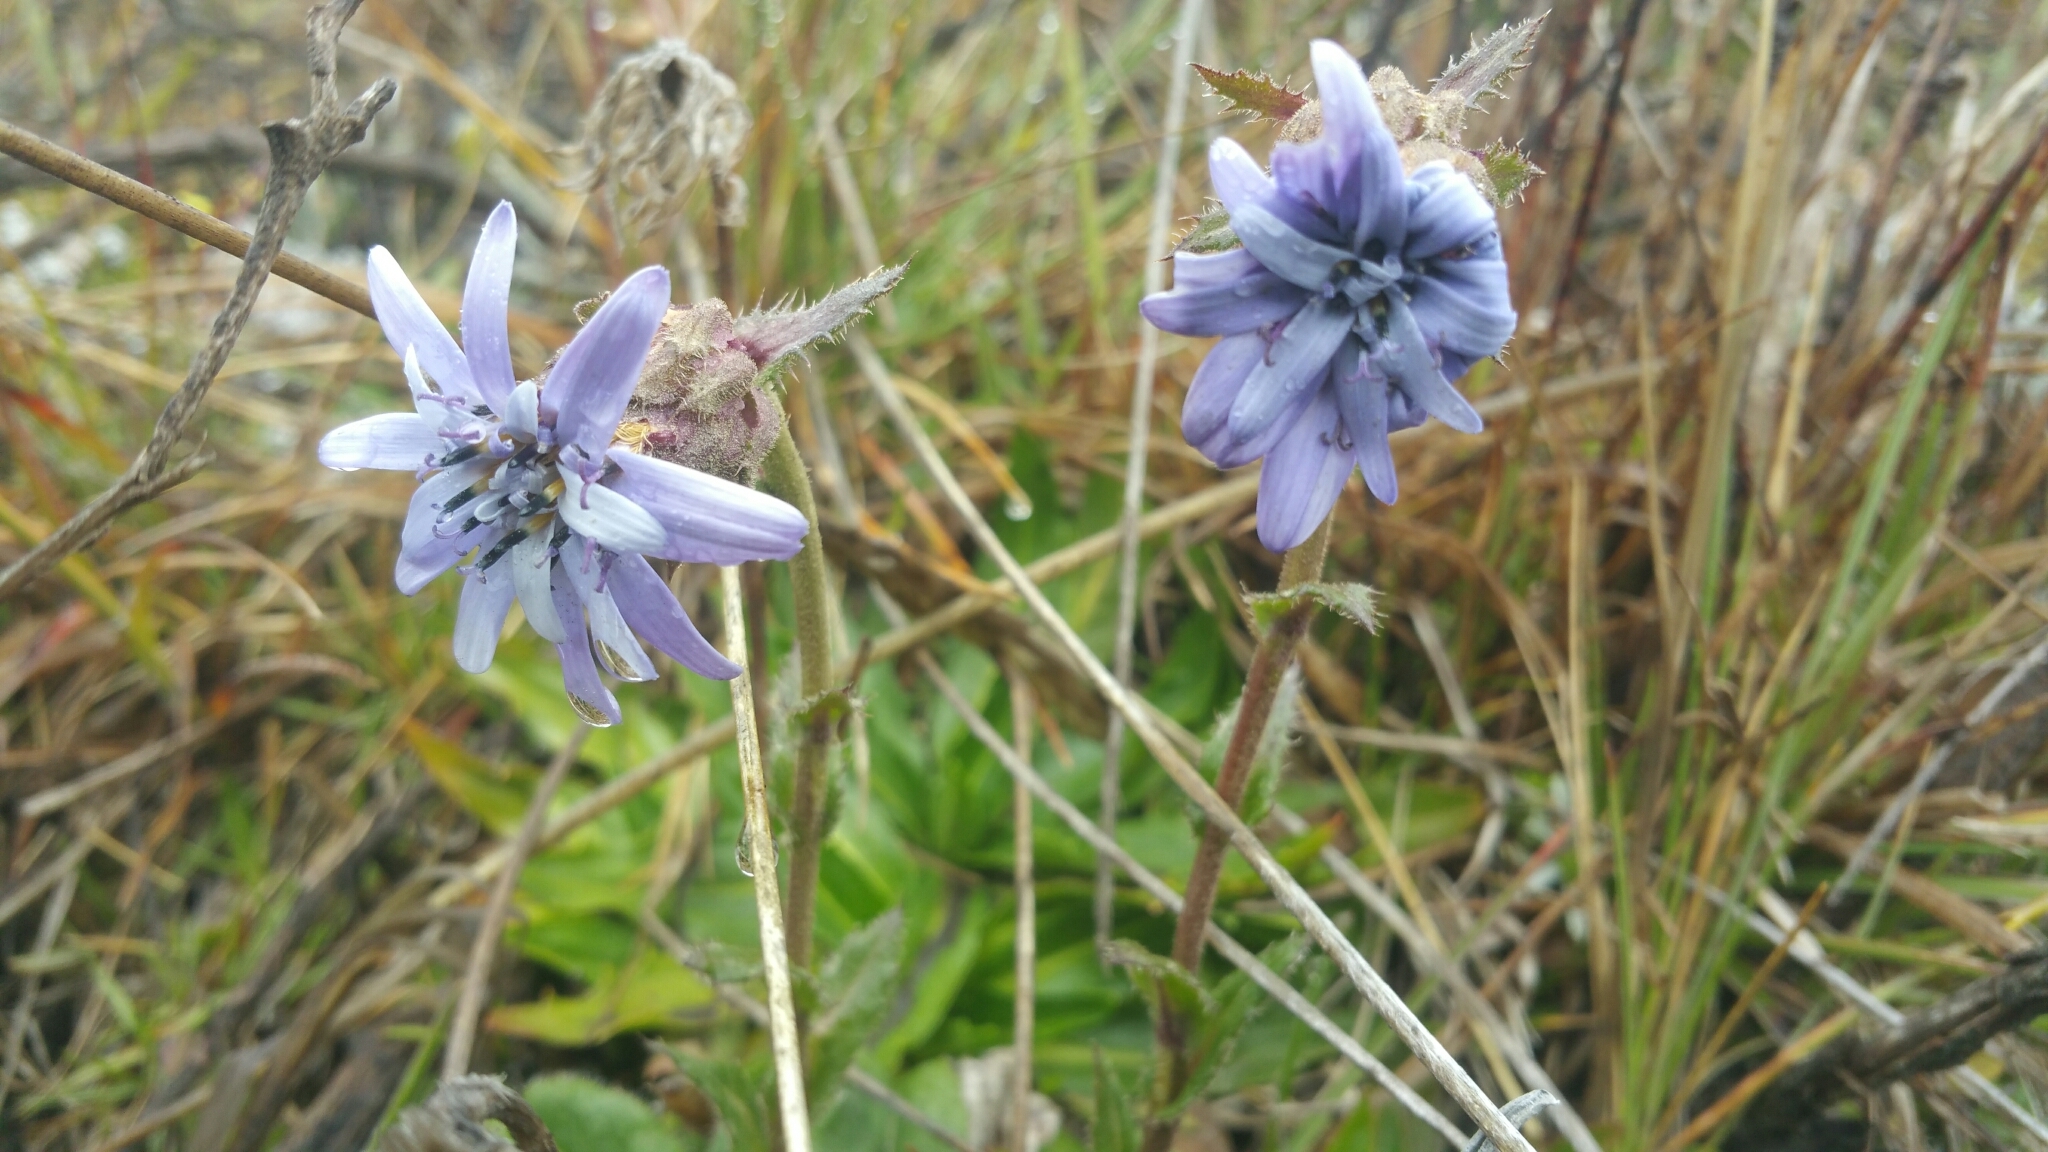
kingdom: Plantae
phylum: Tracheophyta
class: Magnoliopsida
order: Asterales
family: Asteraceae
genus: Perezia
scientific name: Perezia pungens
